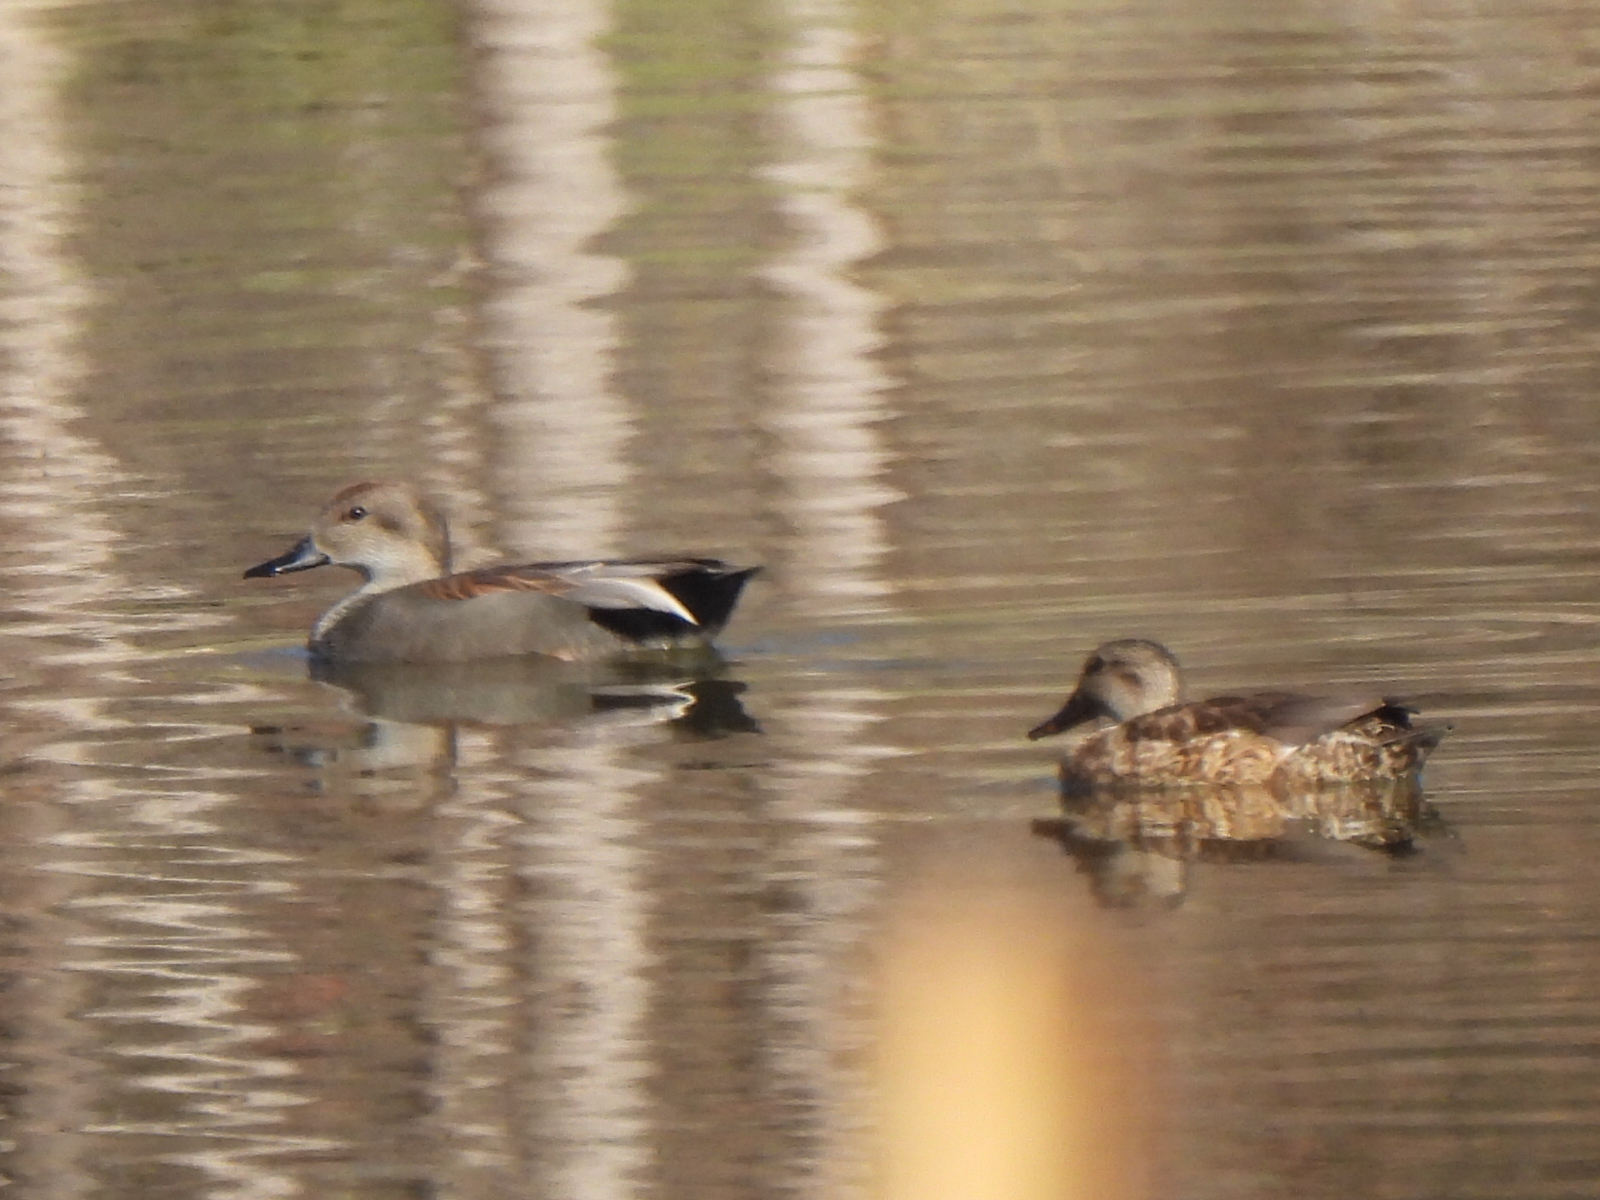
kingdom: Animalia
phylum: Chordata
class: Aves
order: Anseriformes
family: Anatidae
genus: Mareca
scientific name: Mareca strepera
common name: Gadwall
